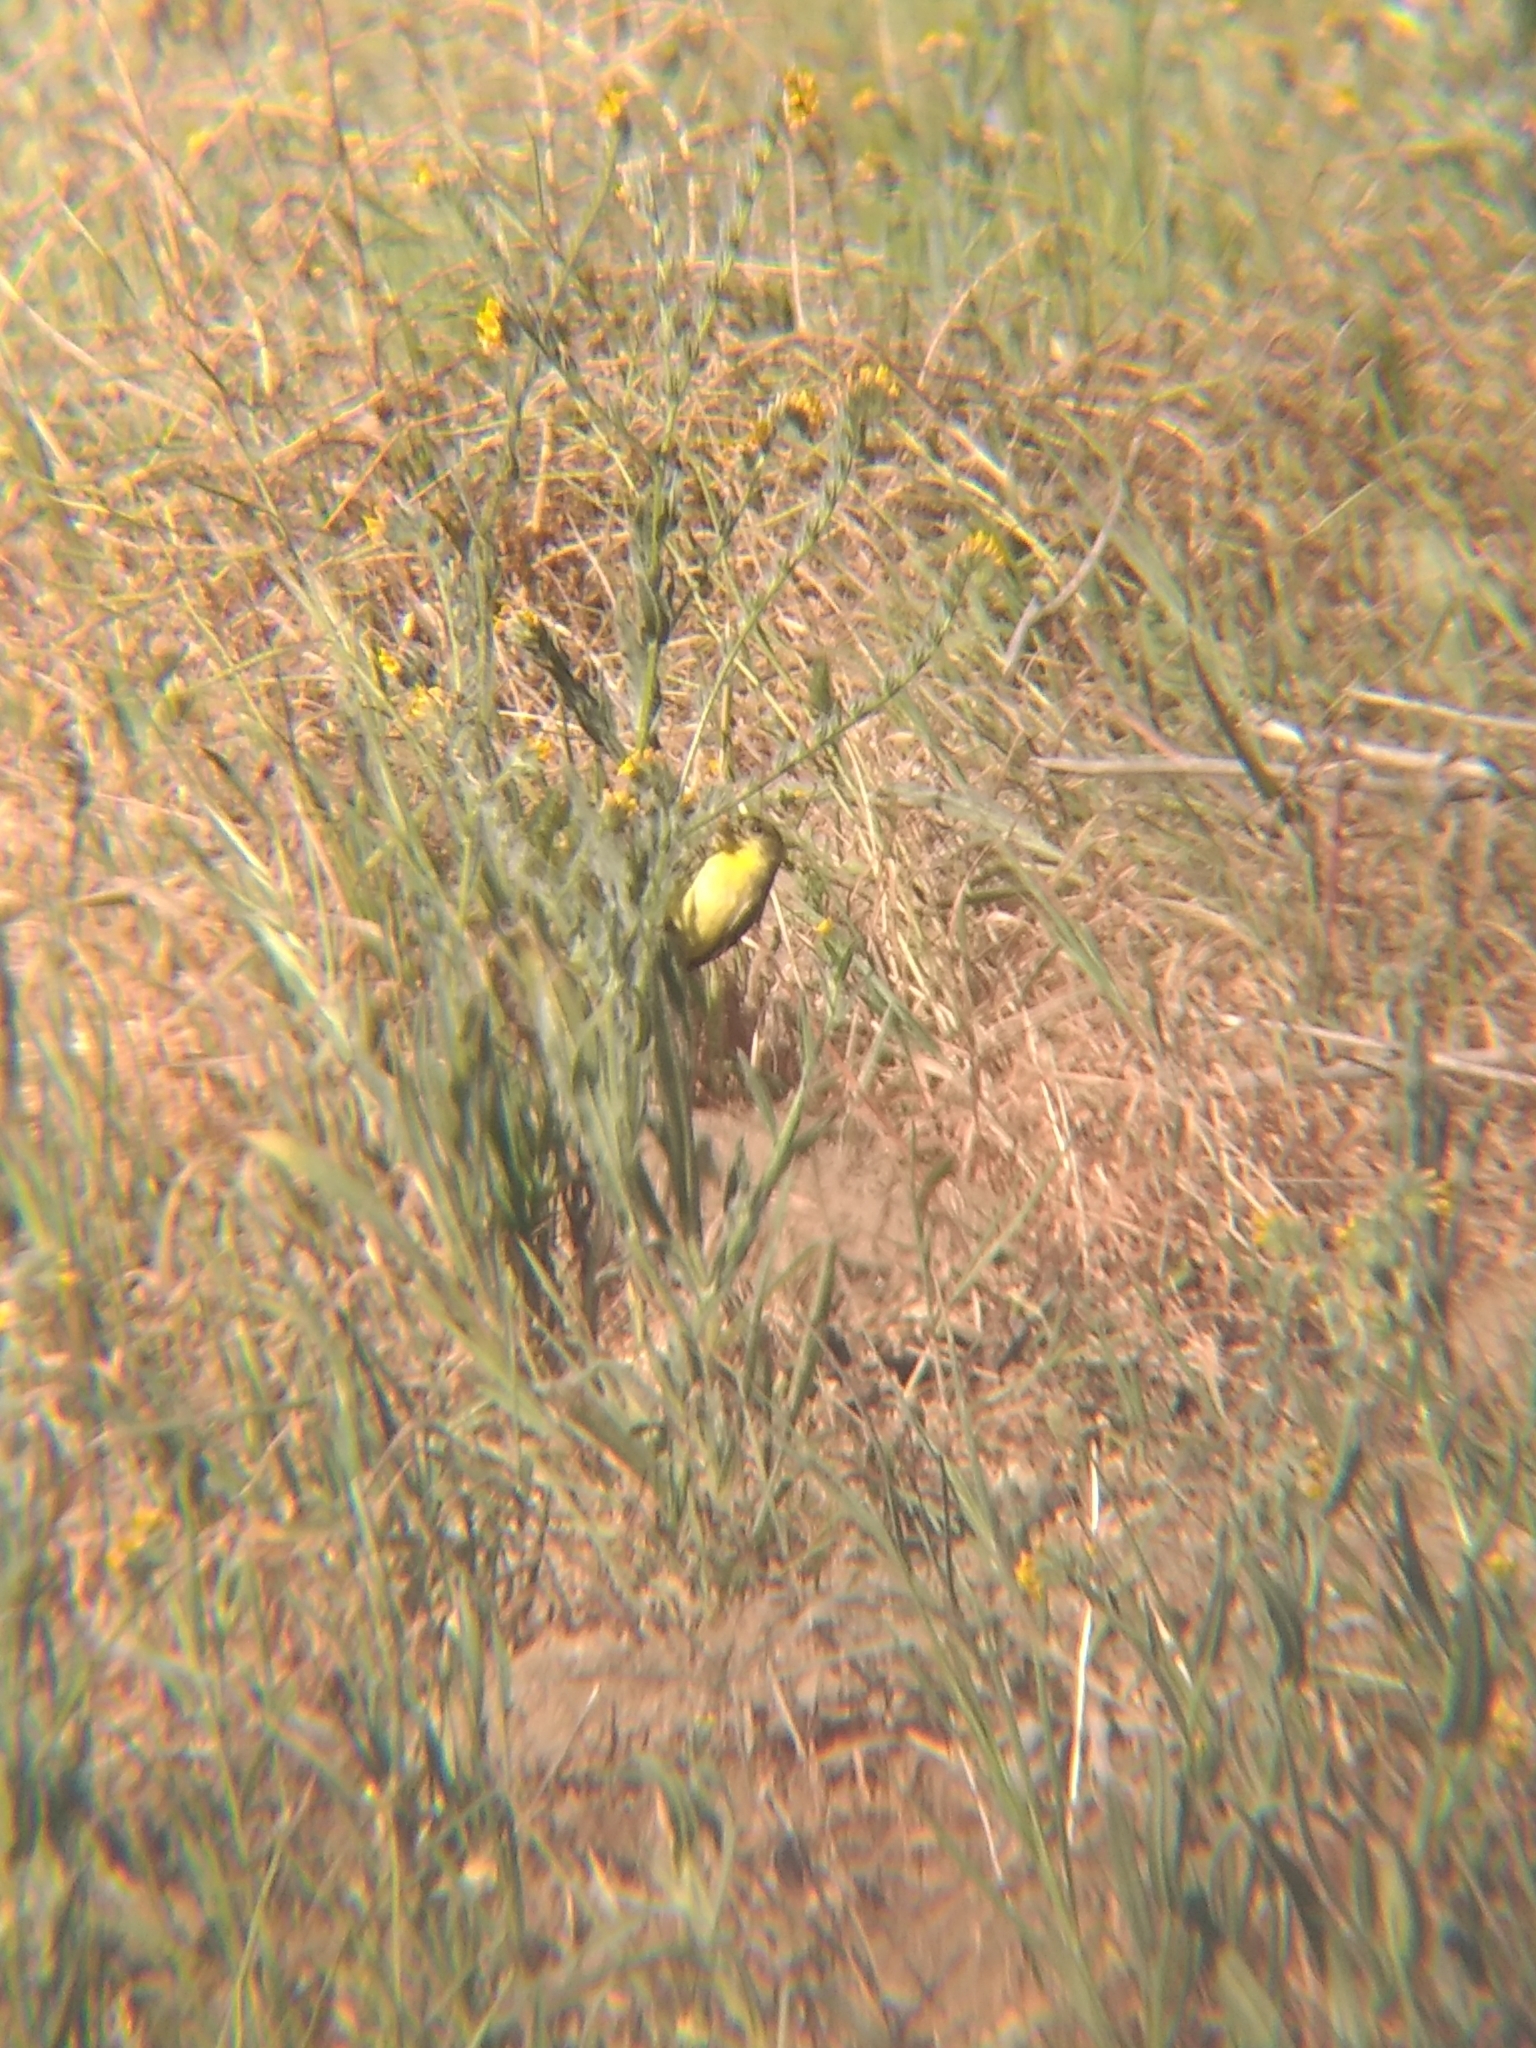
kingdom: Animalia
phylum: Chordata
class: Aves
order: Passeriformes
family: Fringillidae
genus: Spinus
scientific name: Spinus psaltria
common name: Lesser goldfinch
